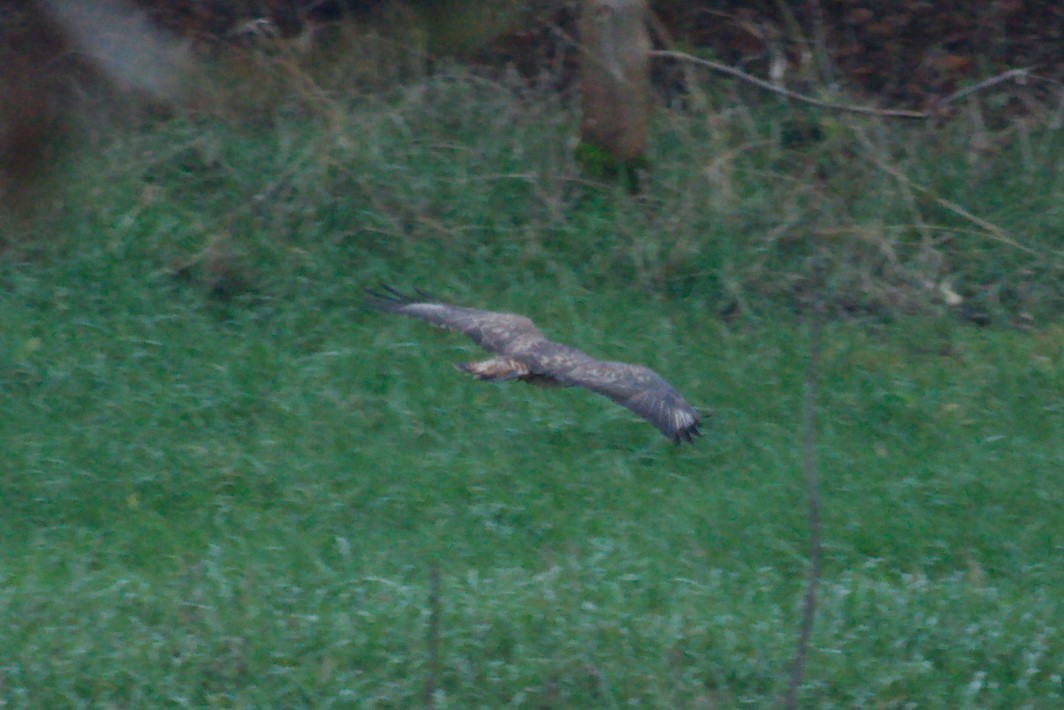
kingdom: Animalia
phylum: Chordata
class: Aves
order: Accipitriformes
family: Accipitridae
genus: Buteo
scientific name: Buteo buteo
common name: Common buzzard
